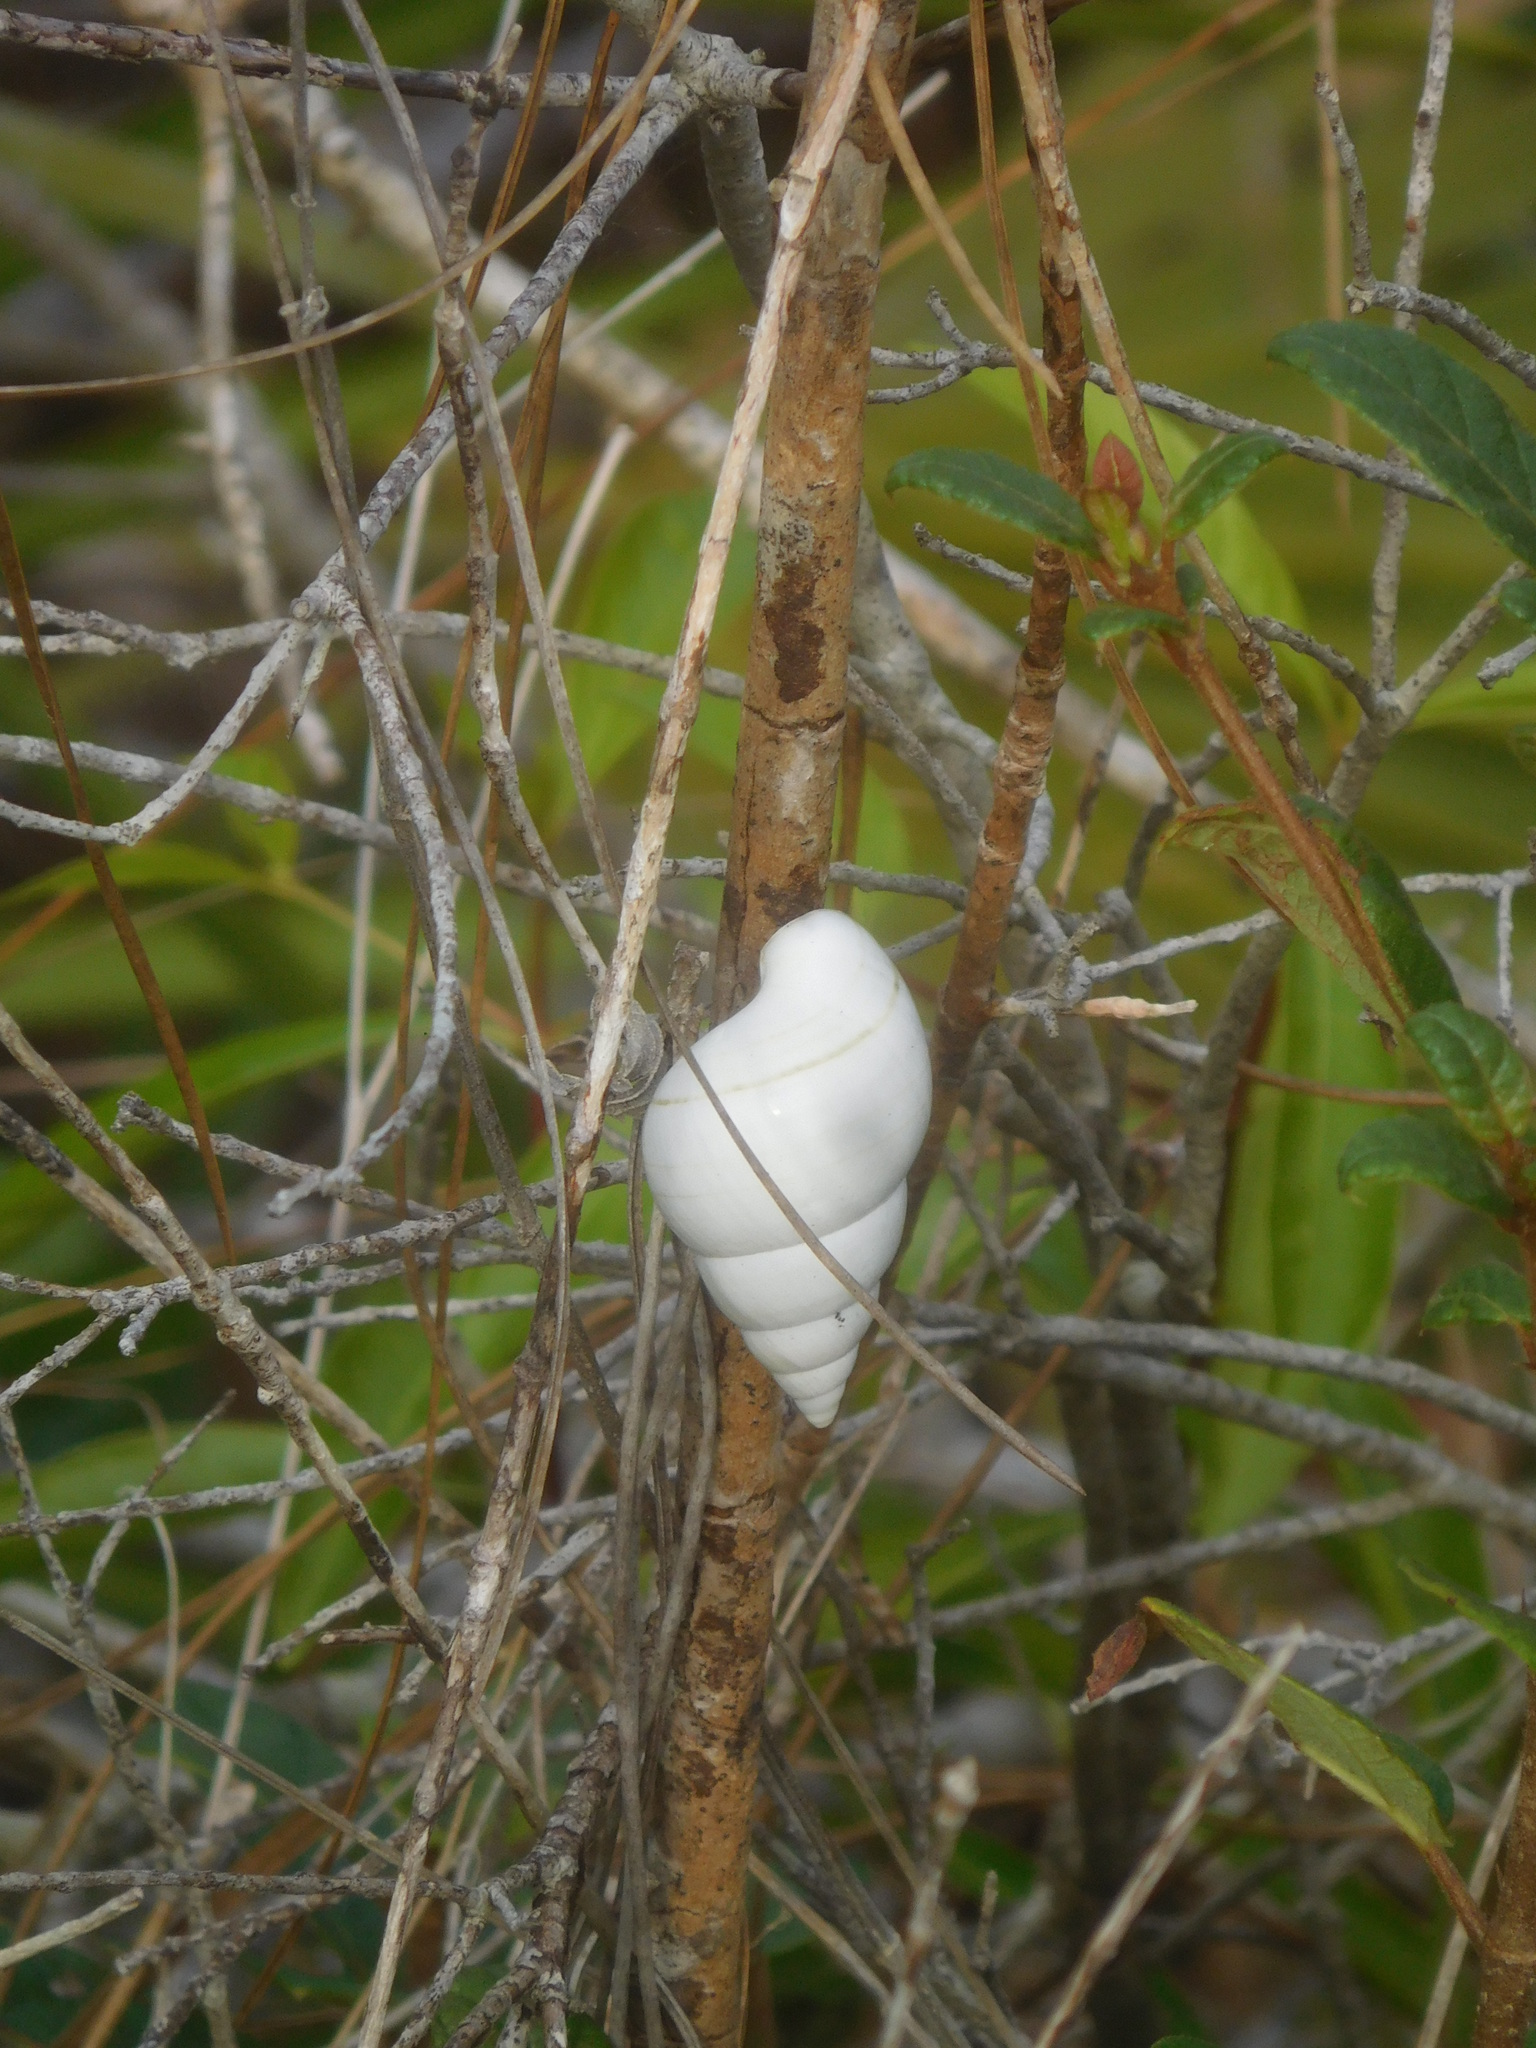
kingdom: Animalia
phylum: Mollusca
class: Gastropoda
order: Stylommatophora
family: Orthalicidae
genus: Liguus
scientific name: Liguus fasciatus
